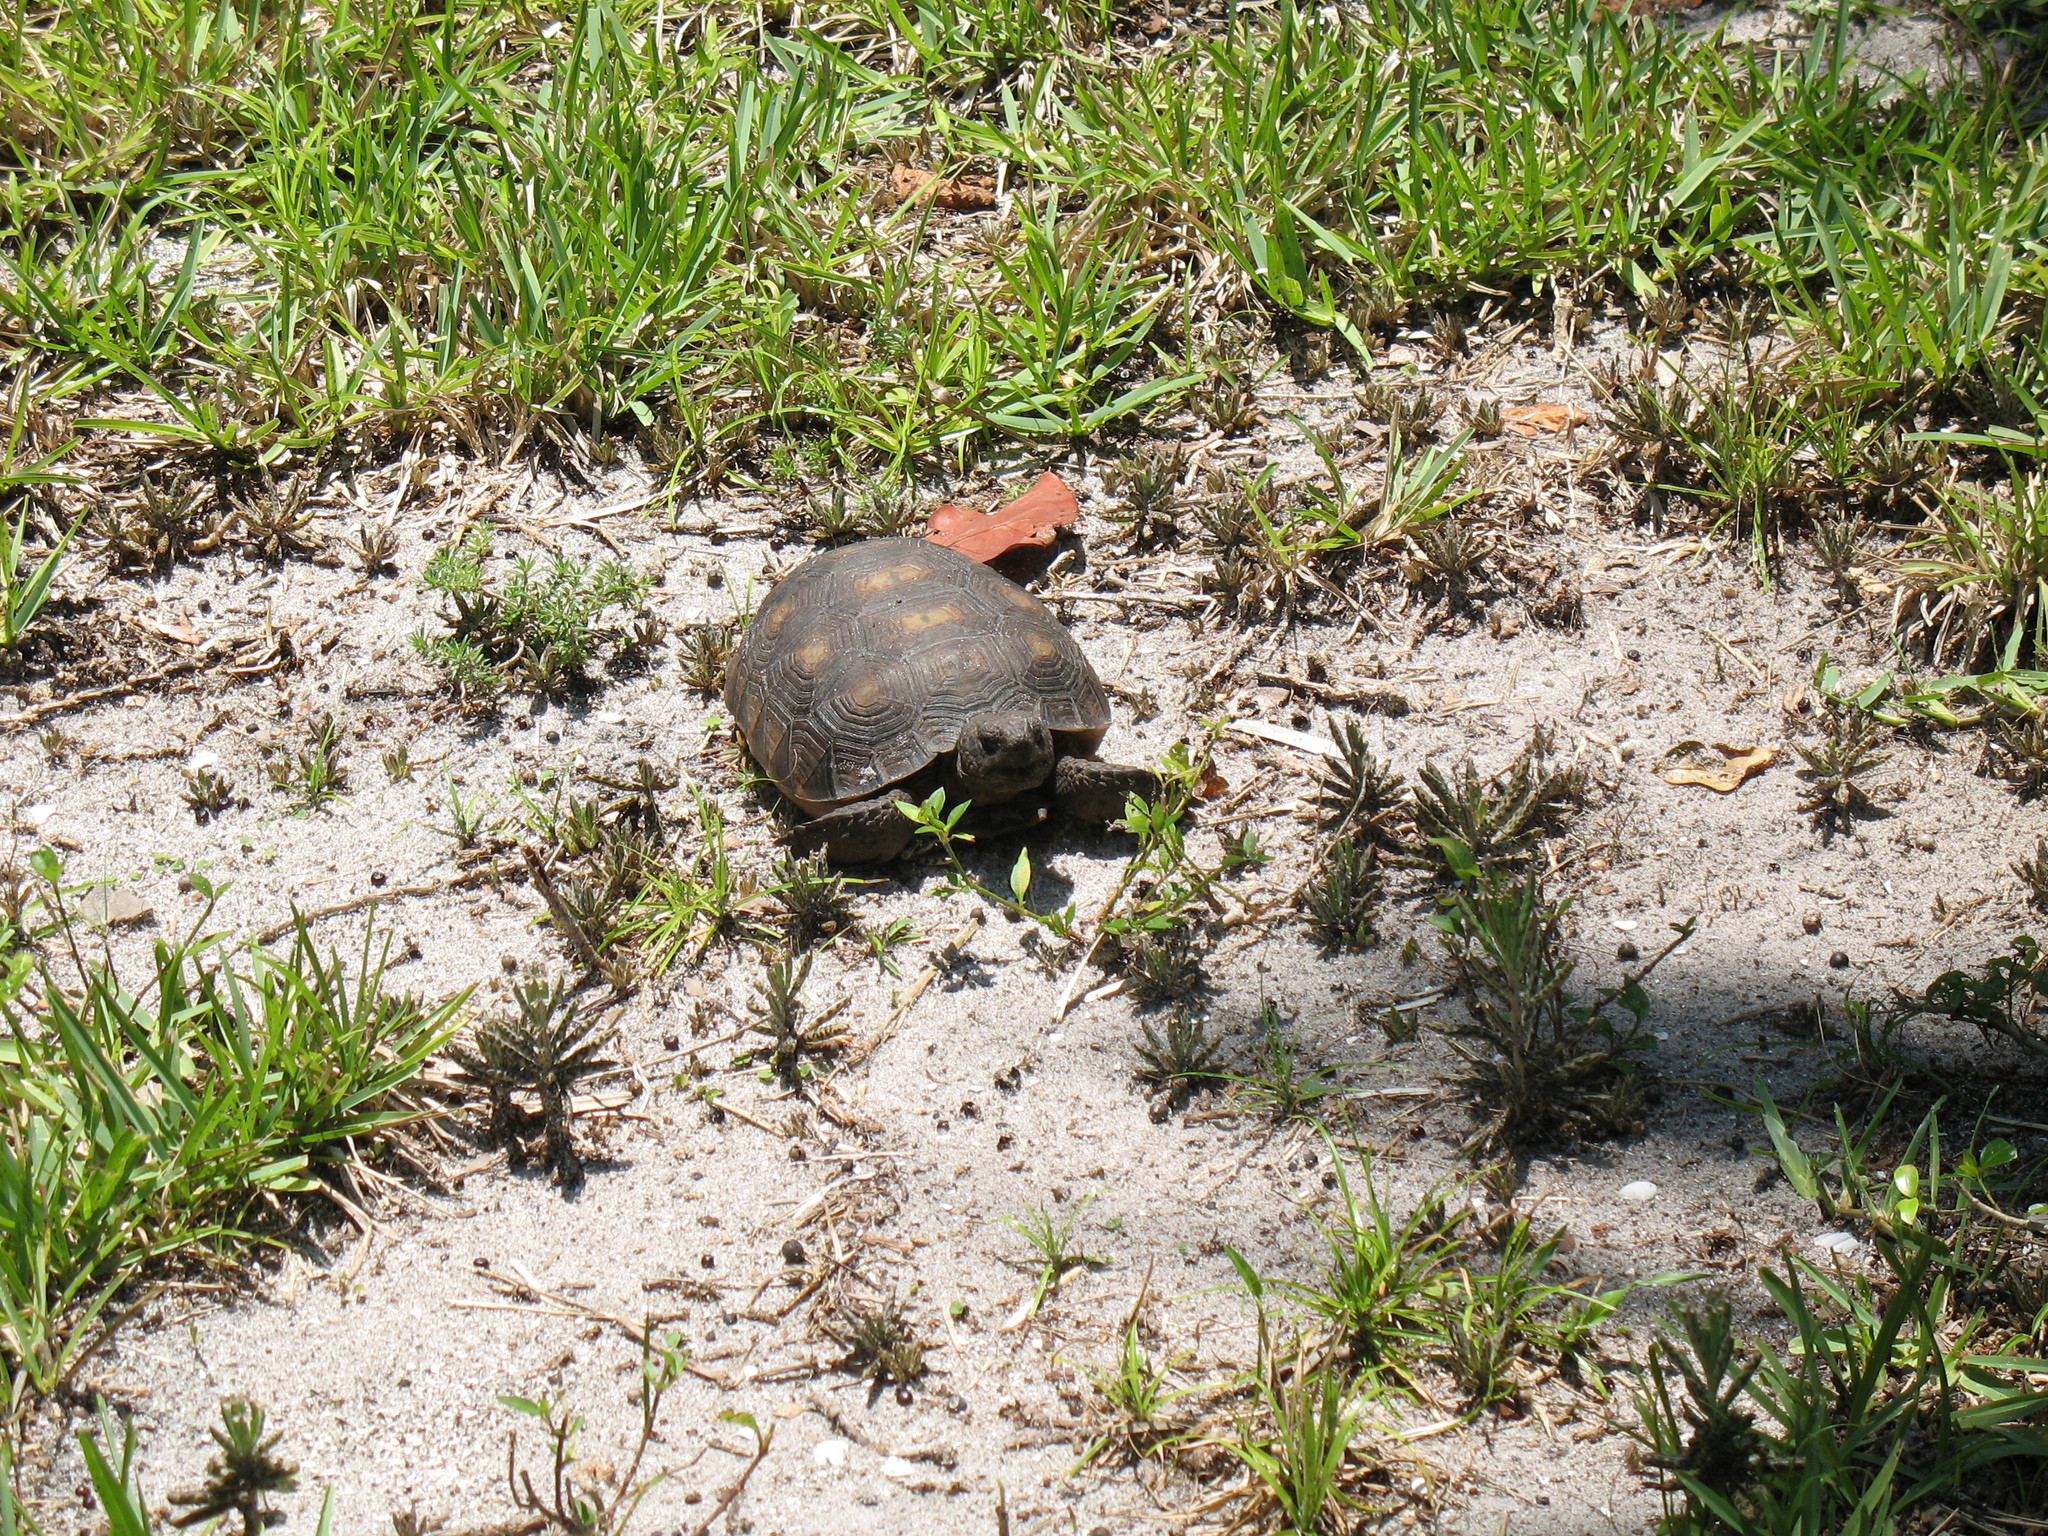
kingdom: Animalia
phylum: Chordata
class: Testudines
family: Testudinidae
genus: Gopherus
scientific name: Gopherus polyphemus
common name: Florida gopher tortoise
